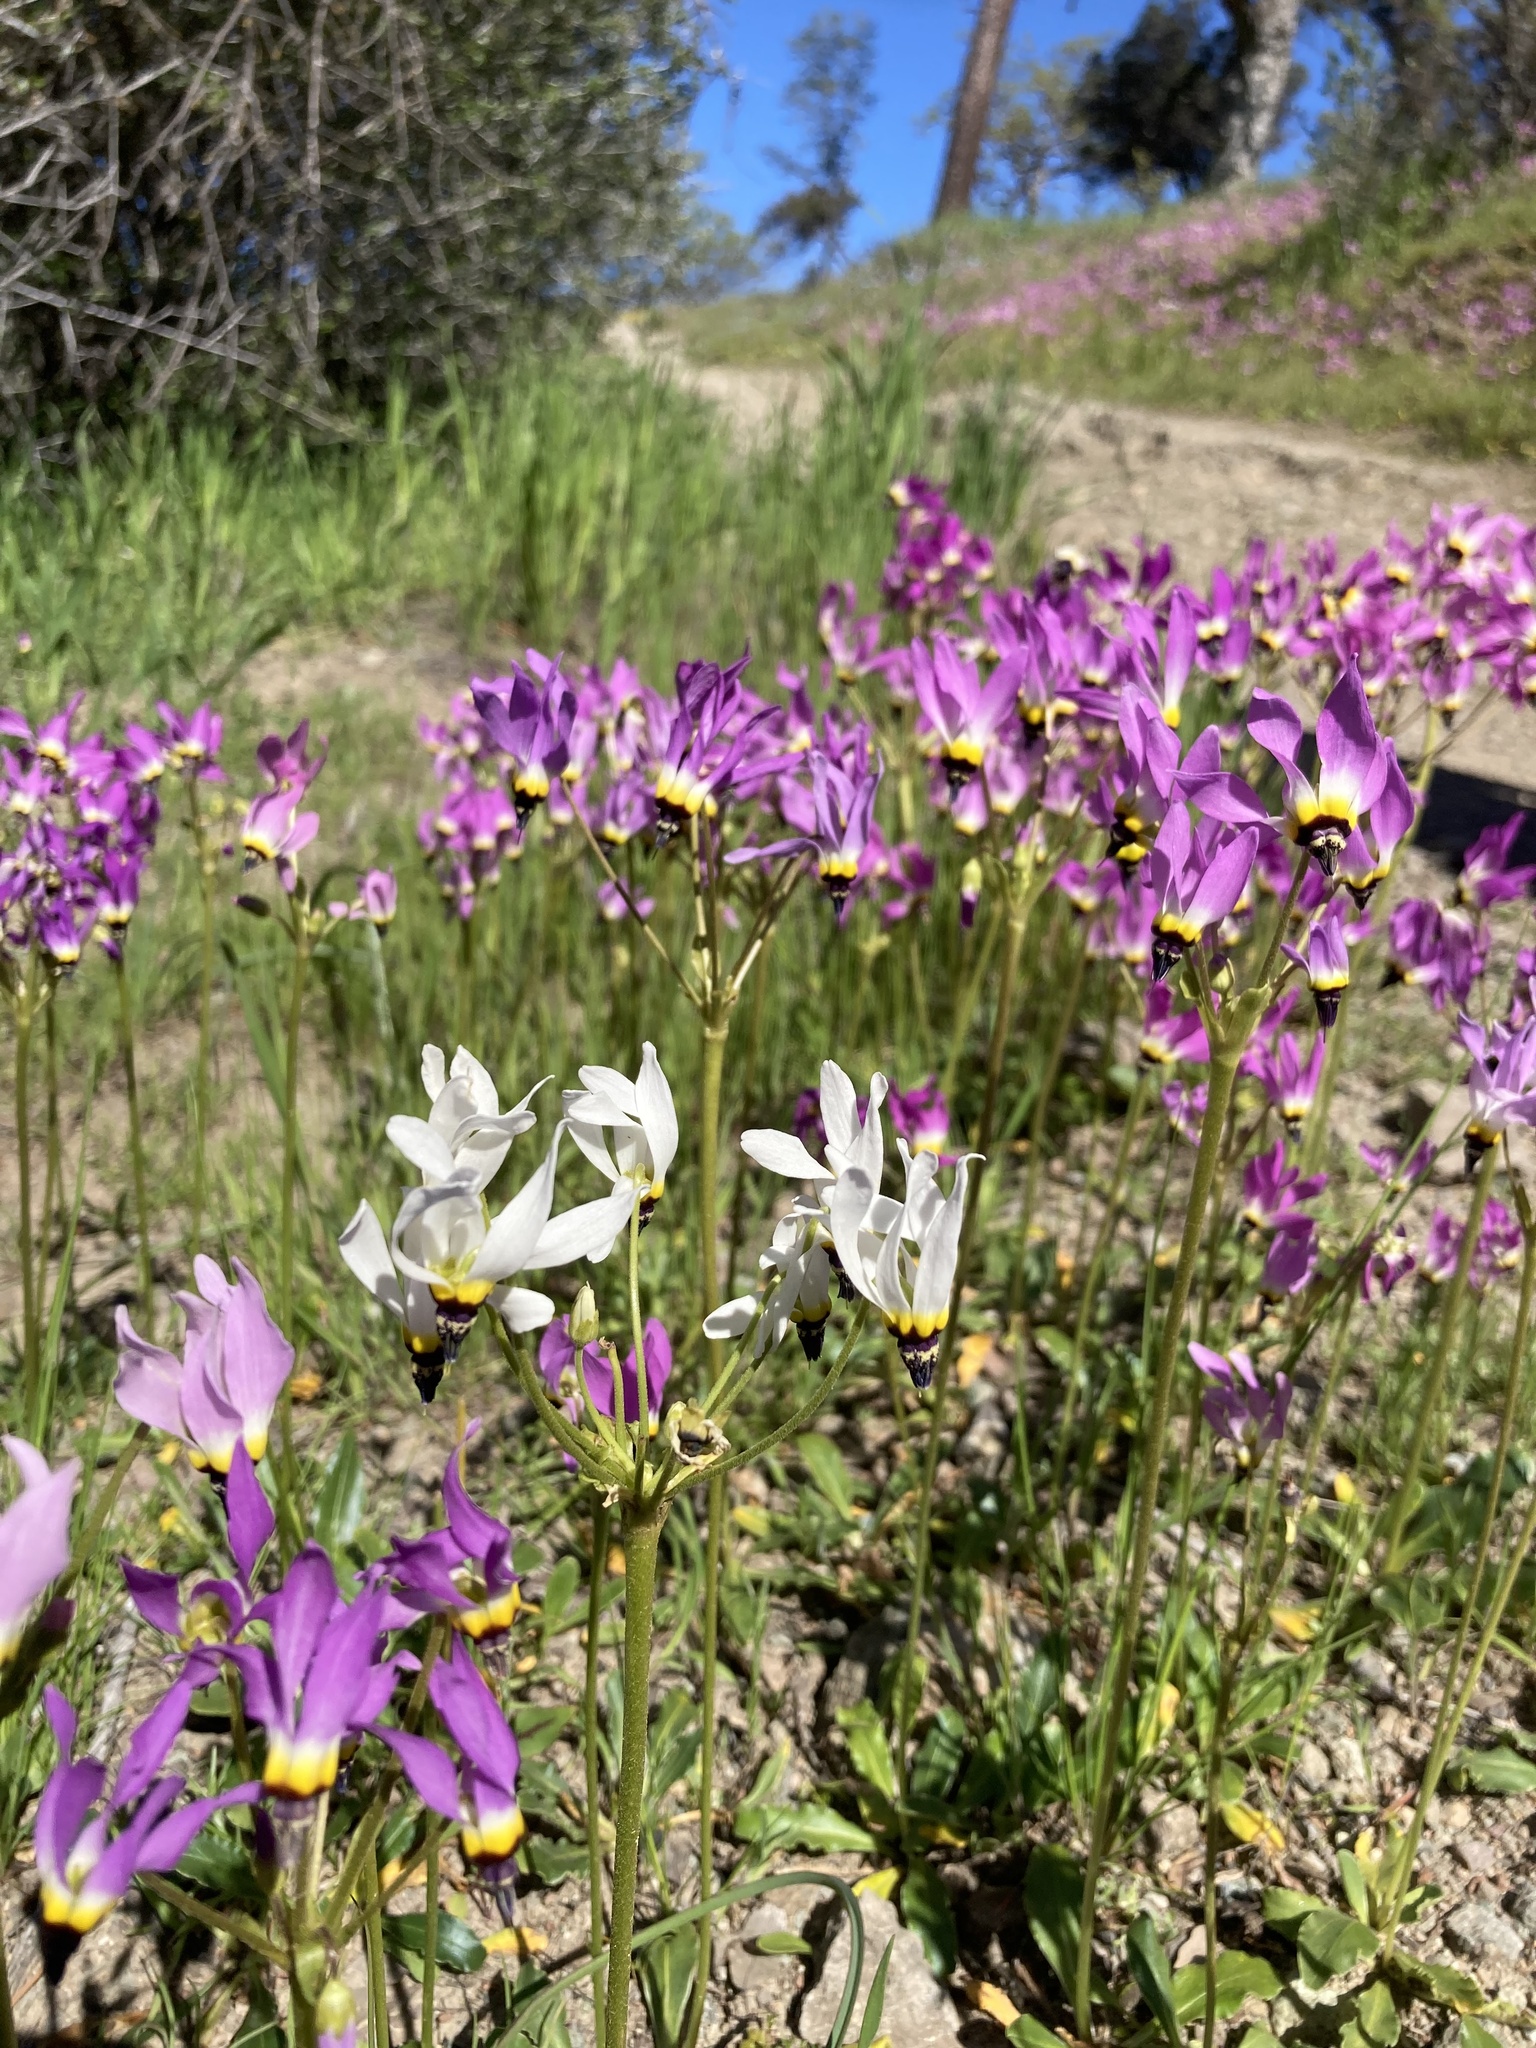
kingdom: Plantae
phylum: Tracheophyta
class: Magnoliopsida
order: Ericales
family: Primulaceae
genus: Dodecatheon
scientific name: Dodecatheon clevelandii
